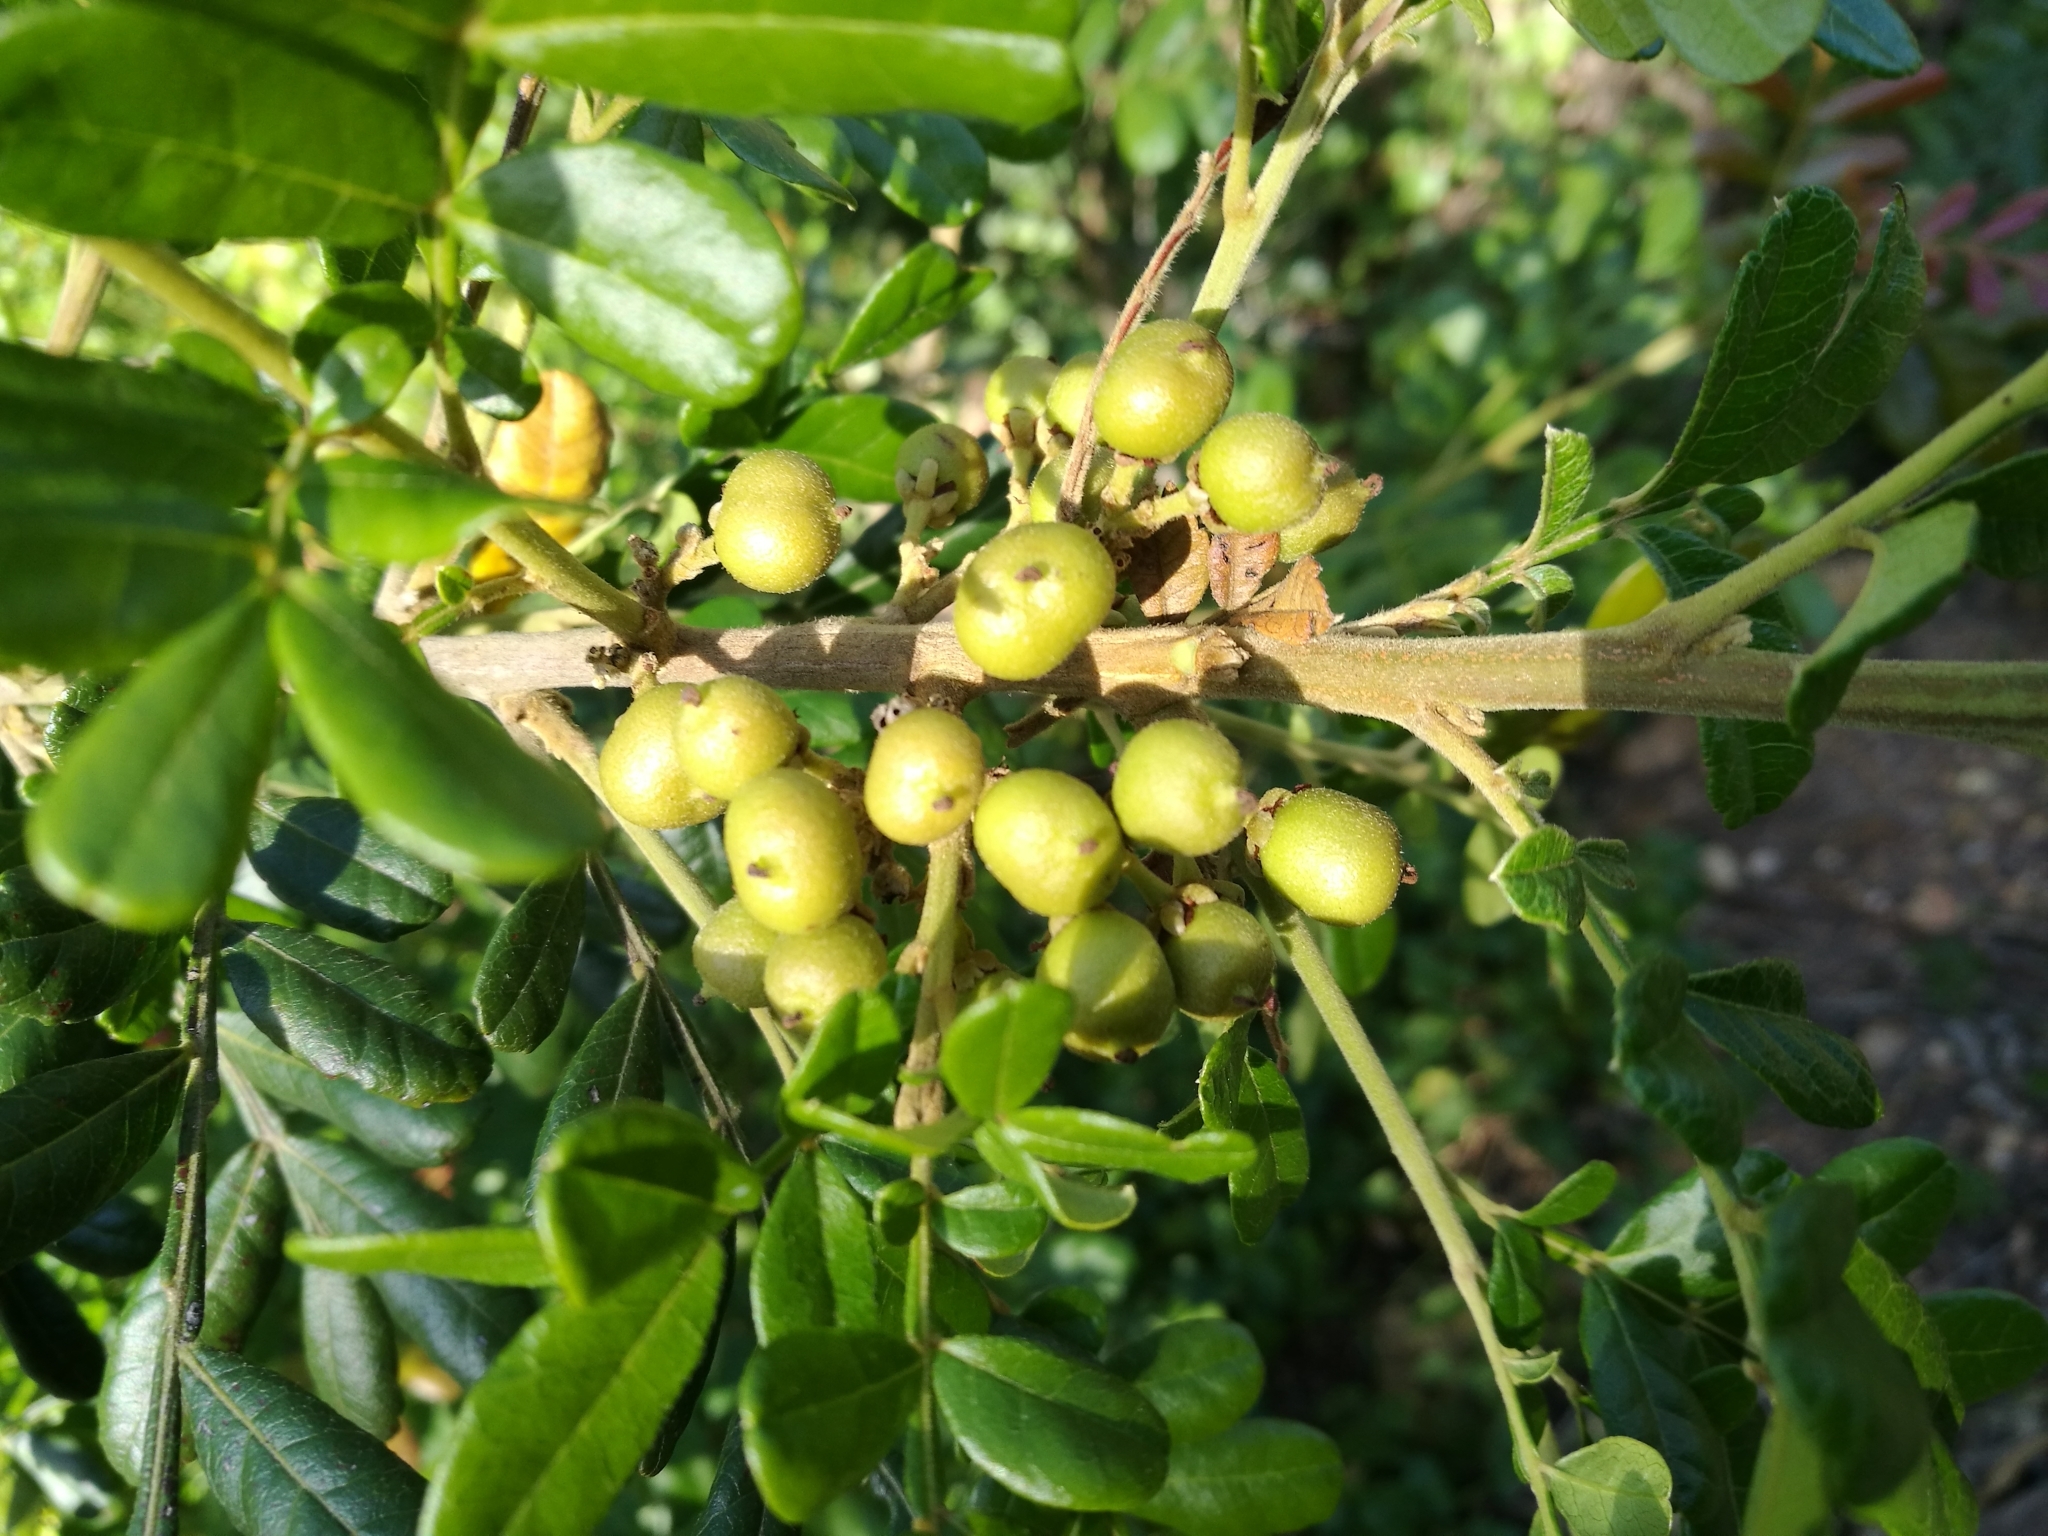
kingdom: Plantae
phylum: Tracheophyta
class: Magnoliopsida
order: Sapindales
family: Sapindaceae
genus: Hippobromus
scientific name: Hippobromus pauciflorus
